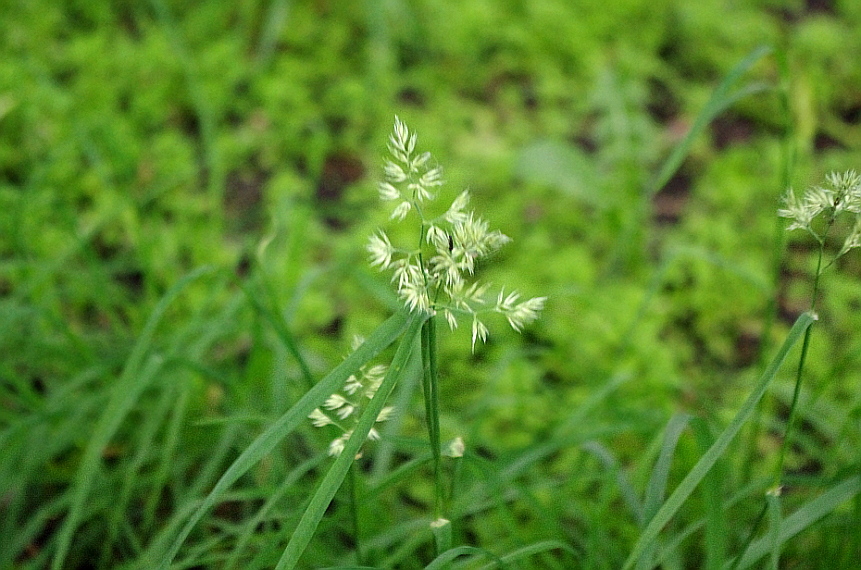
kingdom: Plantae
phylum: Tracheophyta
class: Liliopsida
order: Poales
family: Poaceae
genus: Dactylis
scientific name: Dactylis glomerata
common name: Orchardgrass
